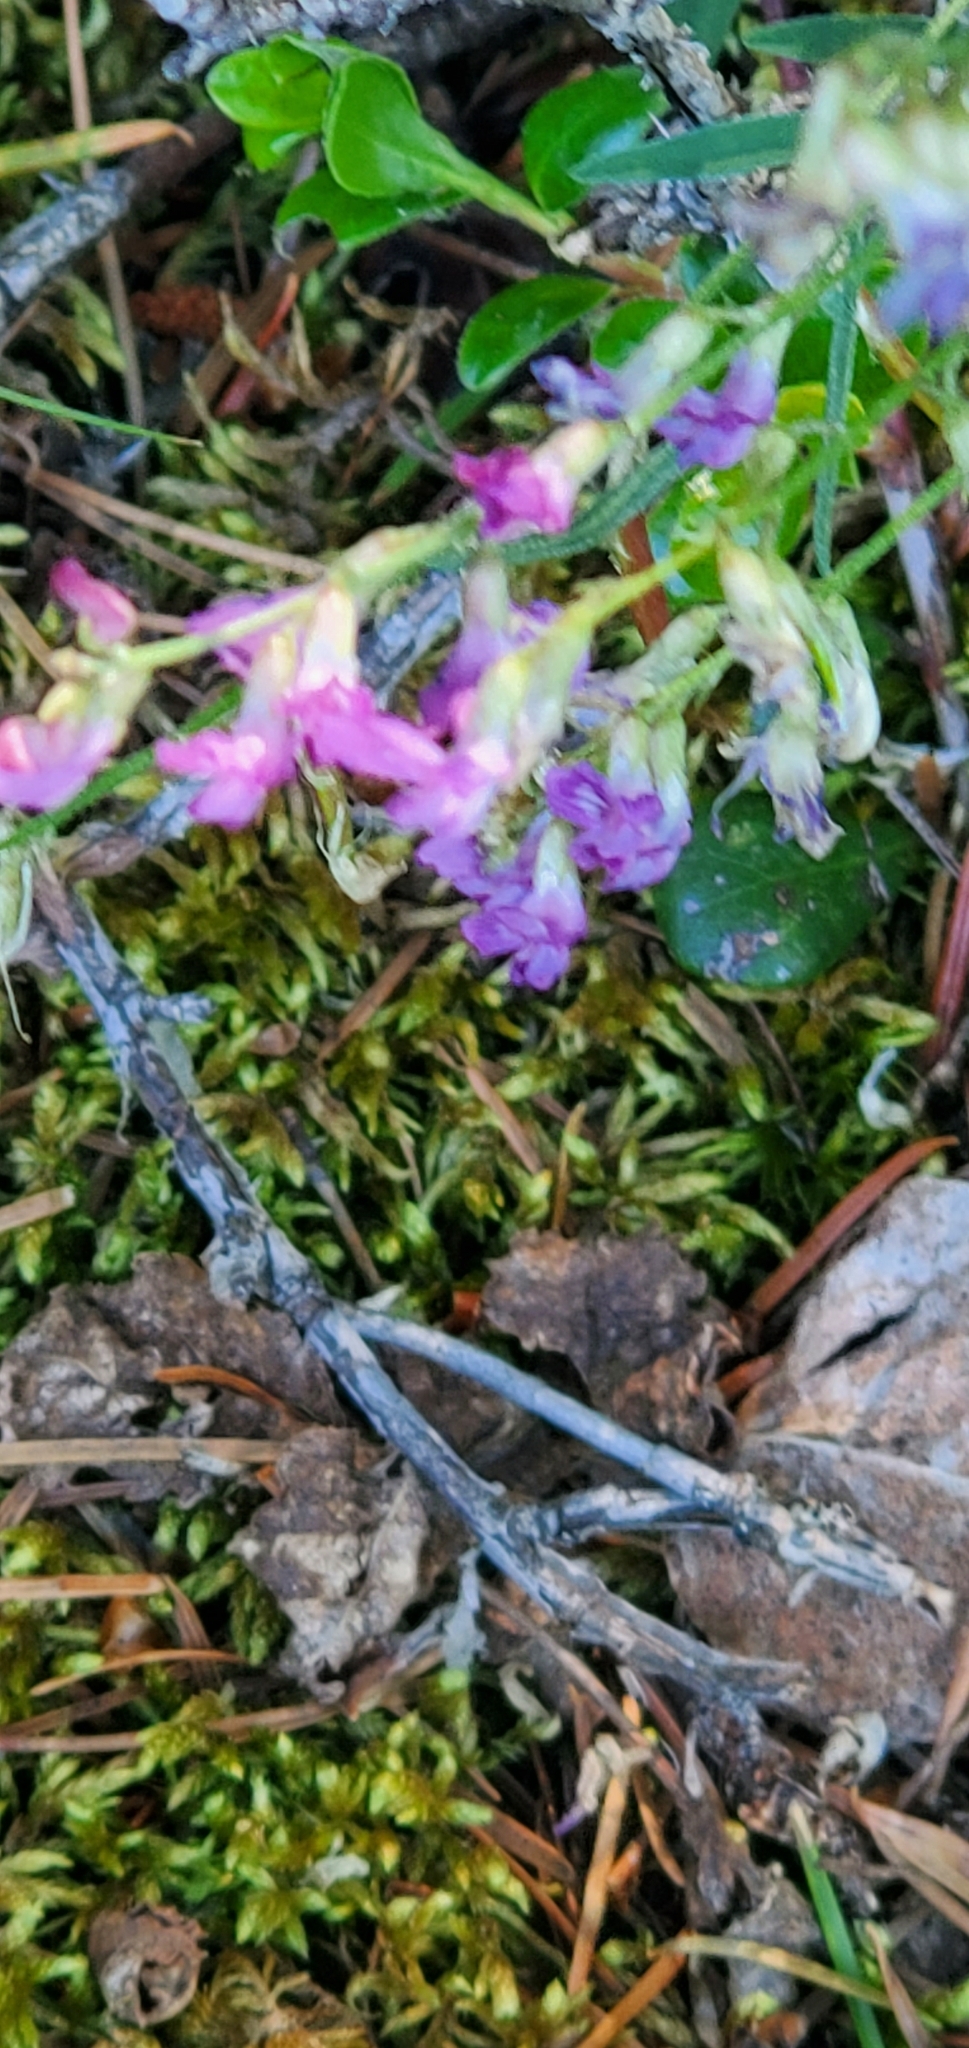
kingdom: Plantae
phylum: Tracheophyta
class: Magnoliopsida
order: Fabales
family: Fabaceae
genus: Astragalus
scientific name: Astragalus miser
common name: Timber milkvetch
